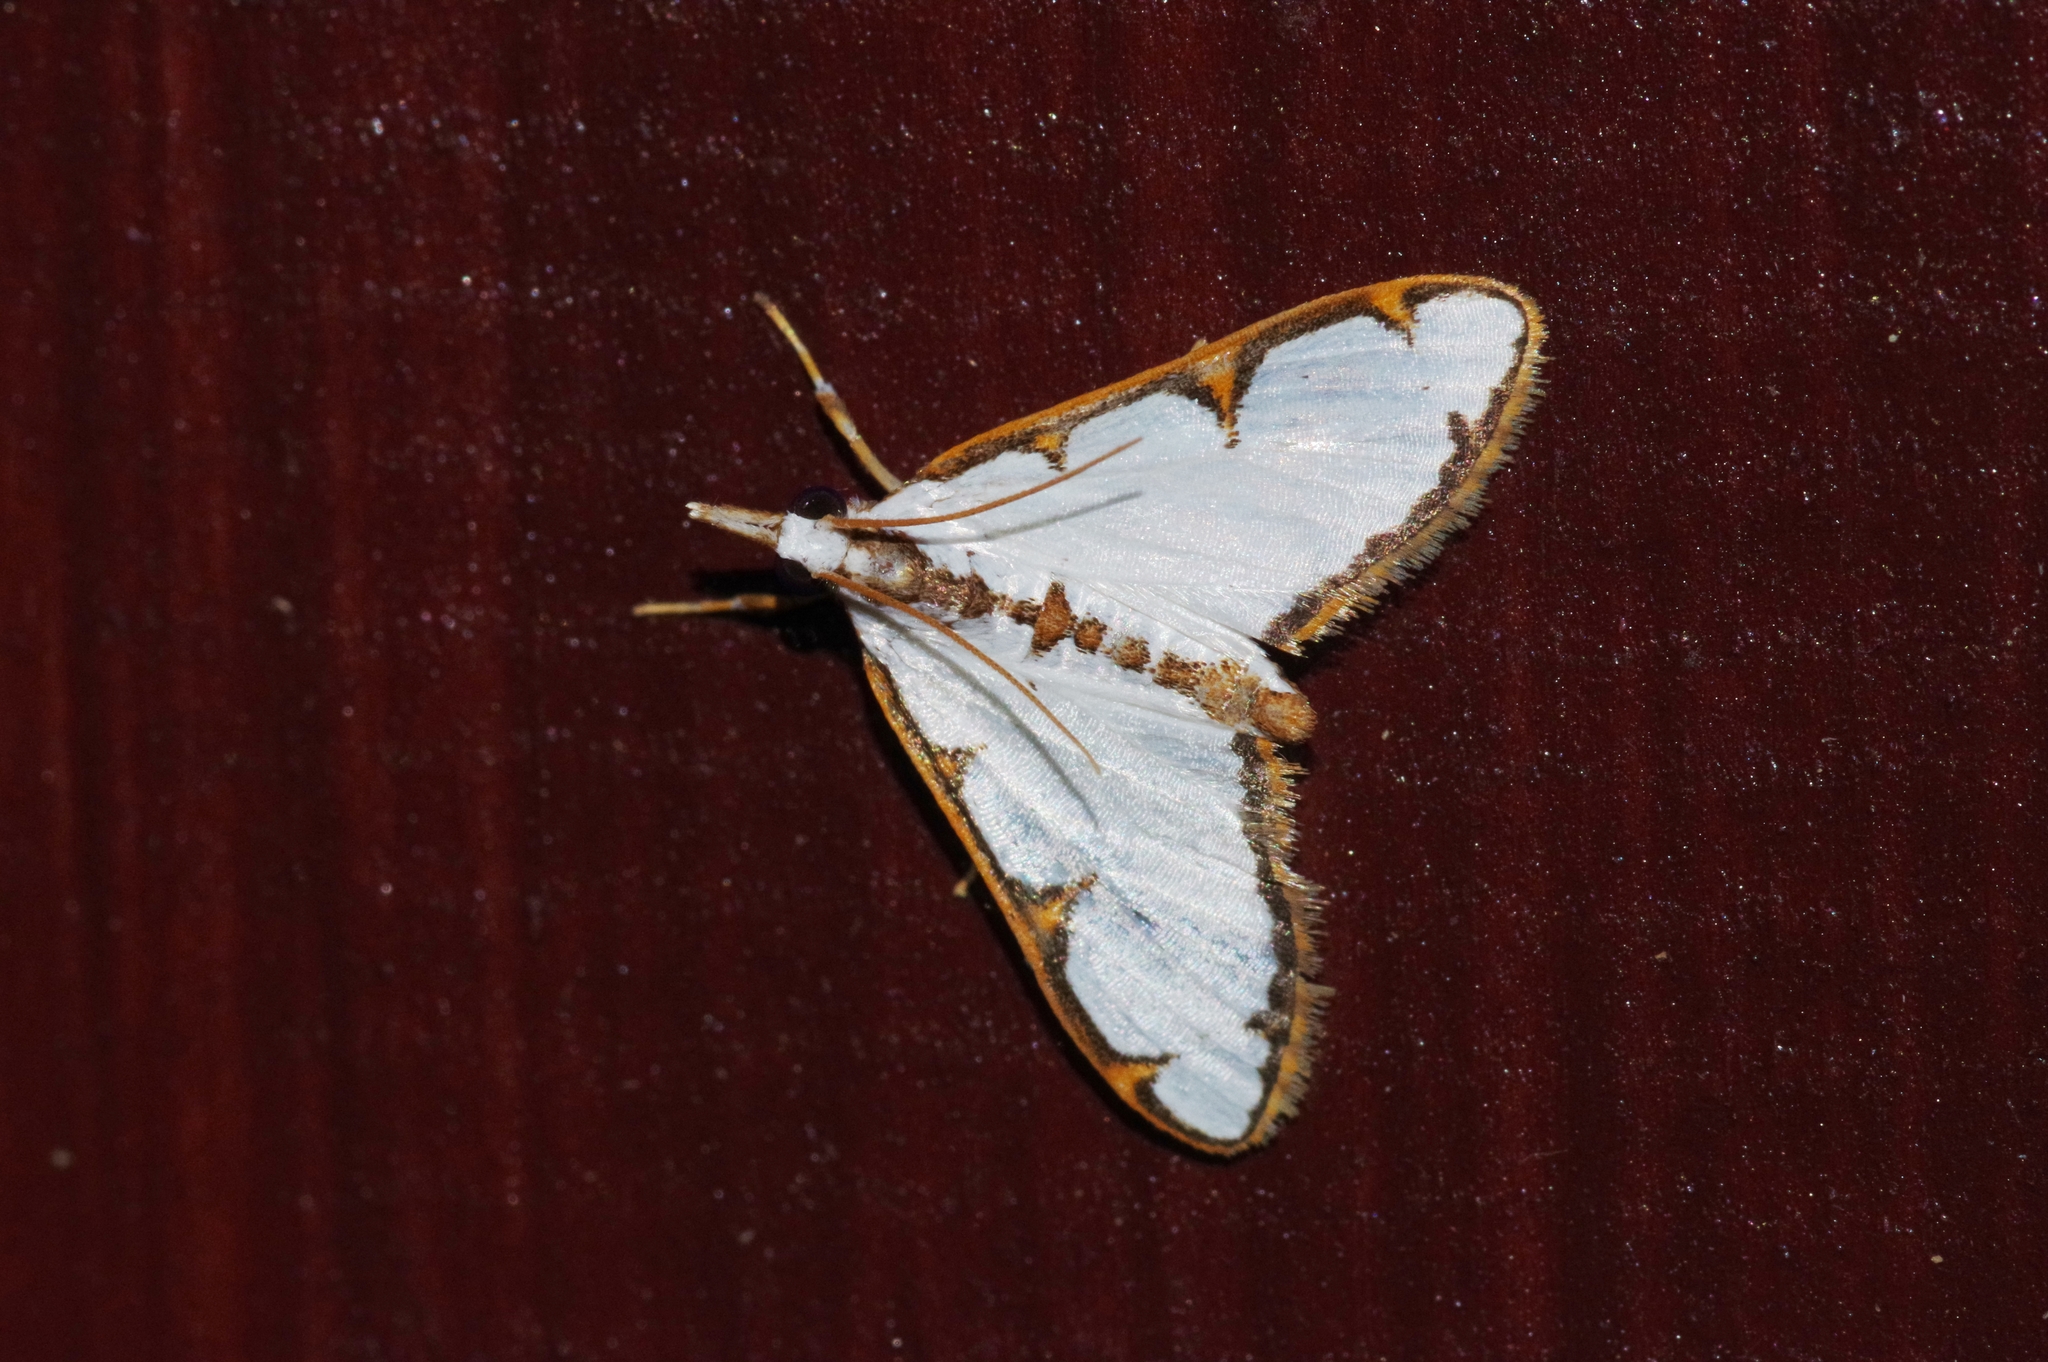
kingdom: Animalia
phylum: Arthropoda
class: Insecta
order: Lepidoptera
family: Crambidae
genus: Cirrhochrista
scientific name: Cirrhochrista brizoalis
